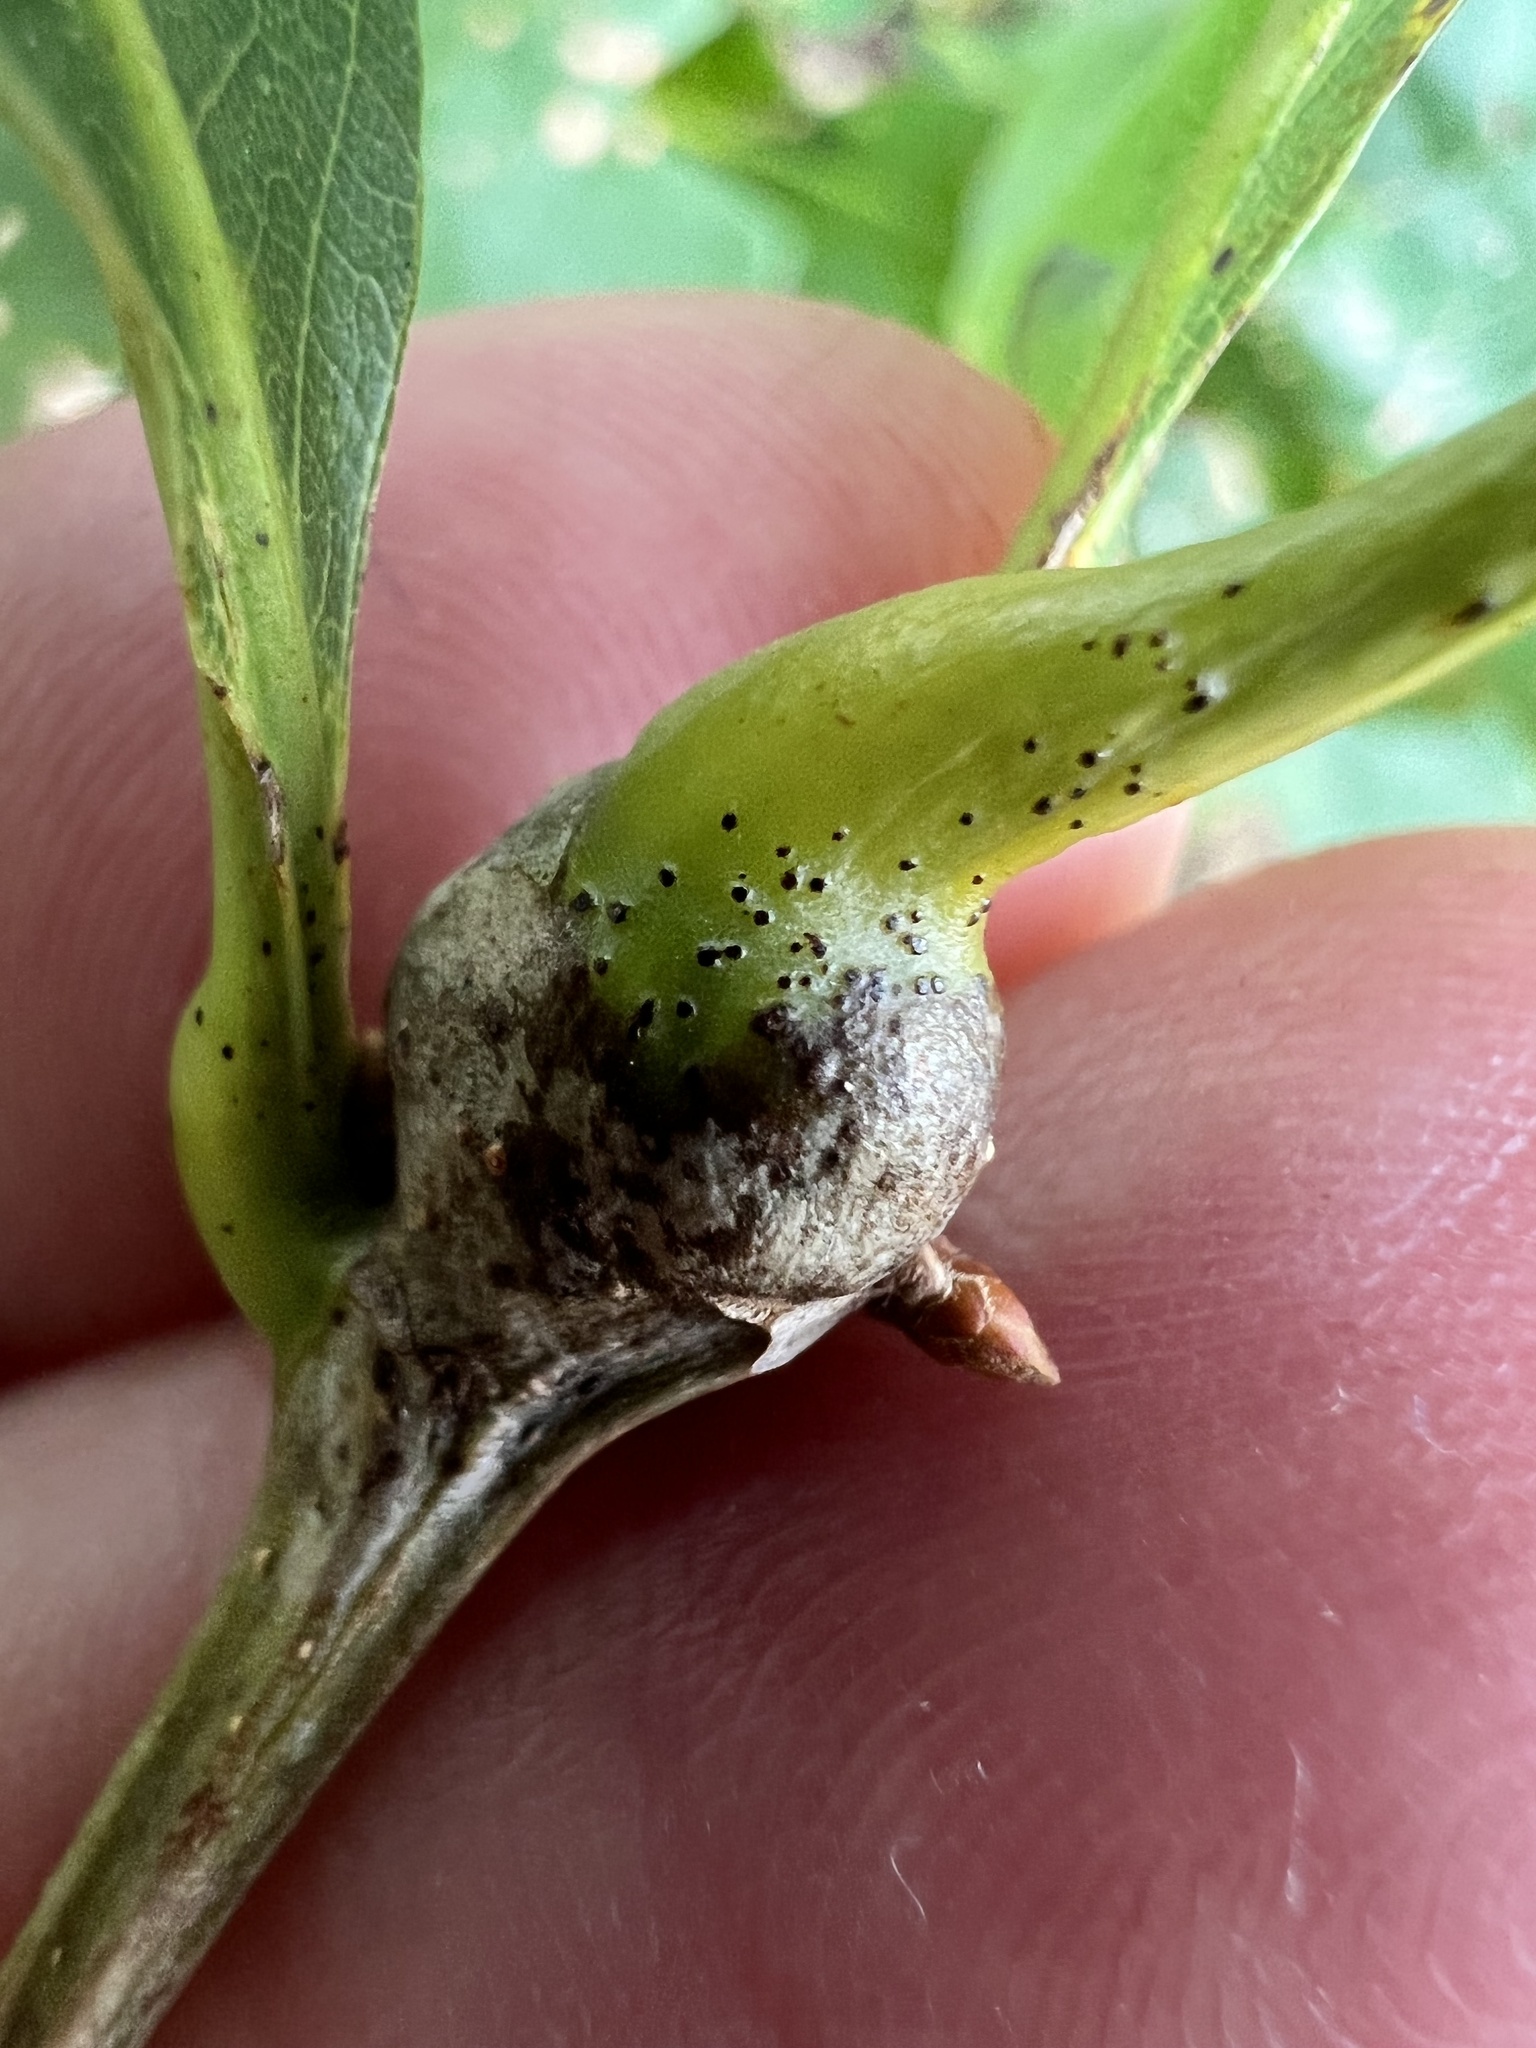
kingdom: Animalia
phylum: Arthropoda
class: Insecta
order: Hymenoptera
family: Cynipidae
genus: Callirhytis
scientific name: Callirhytis clavula
